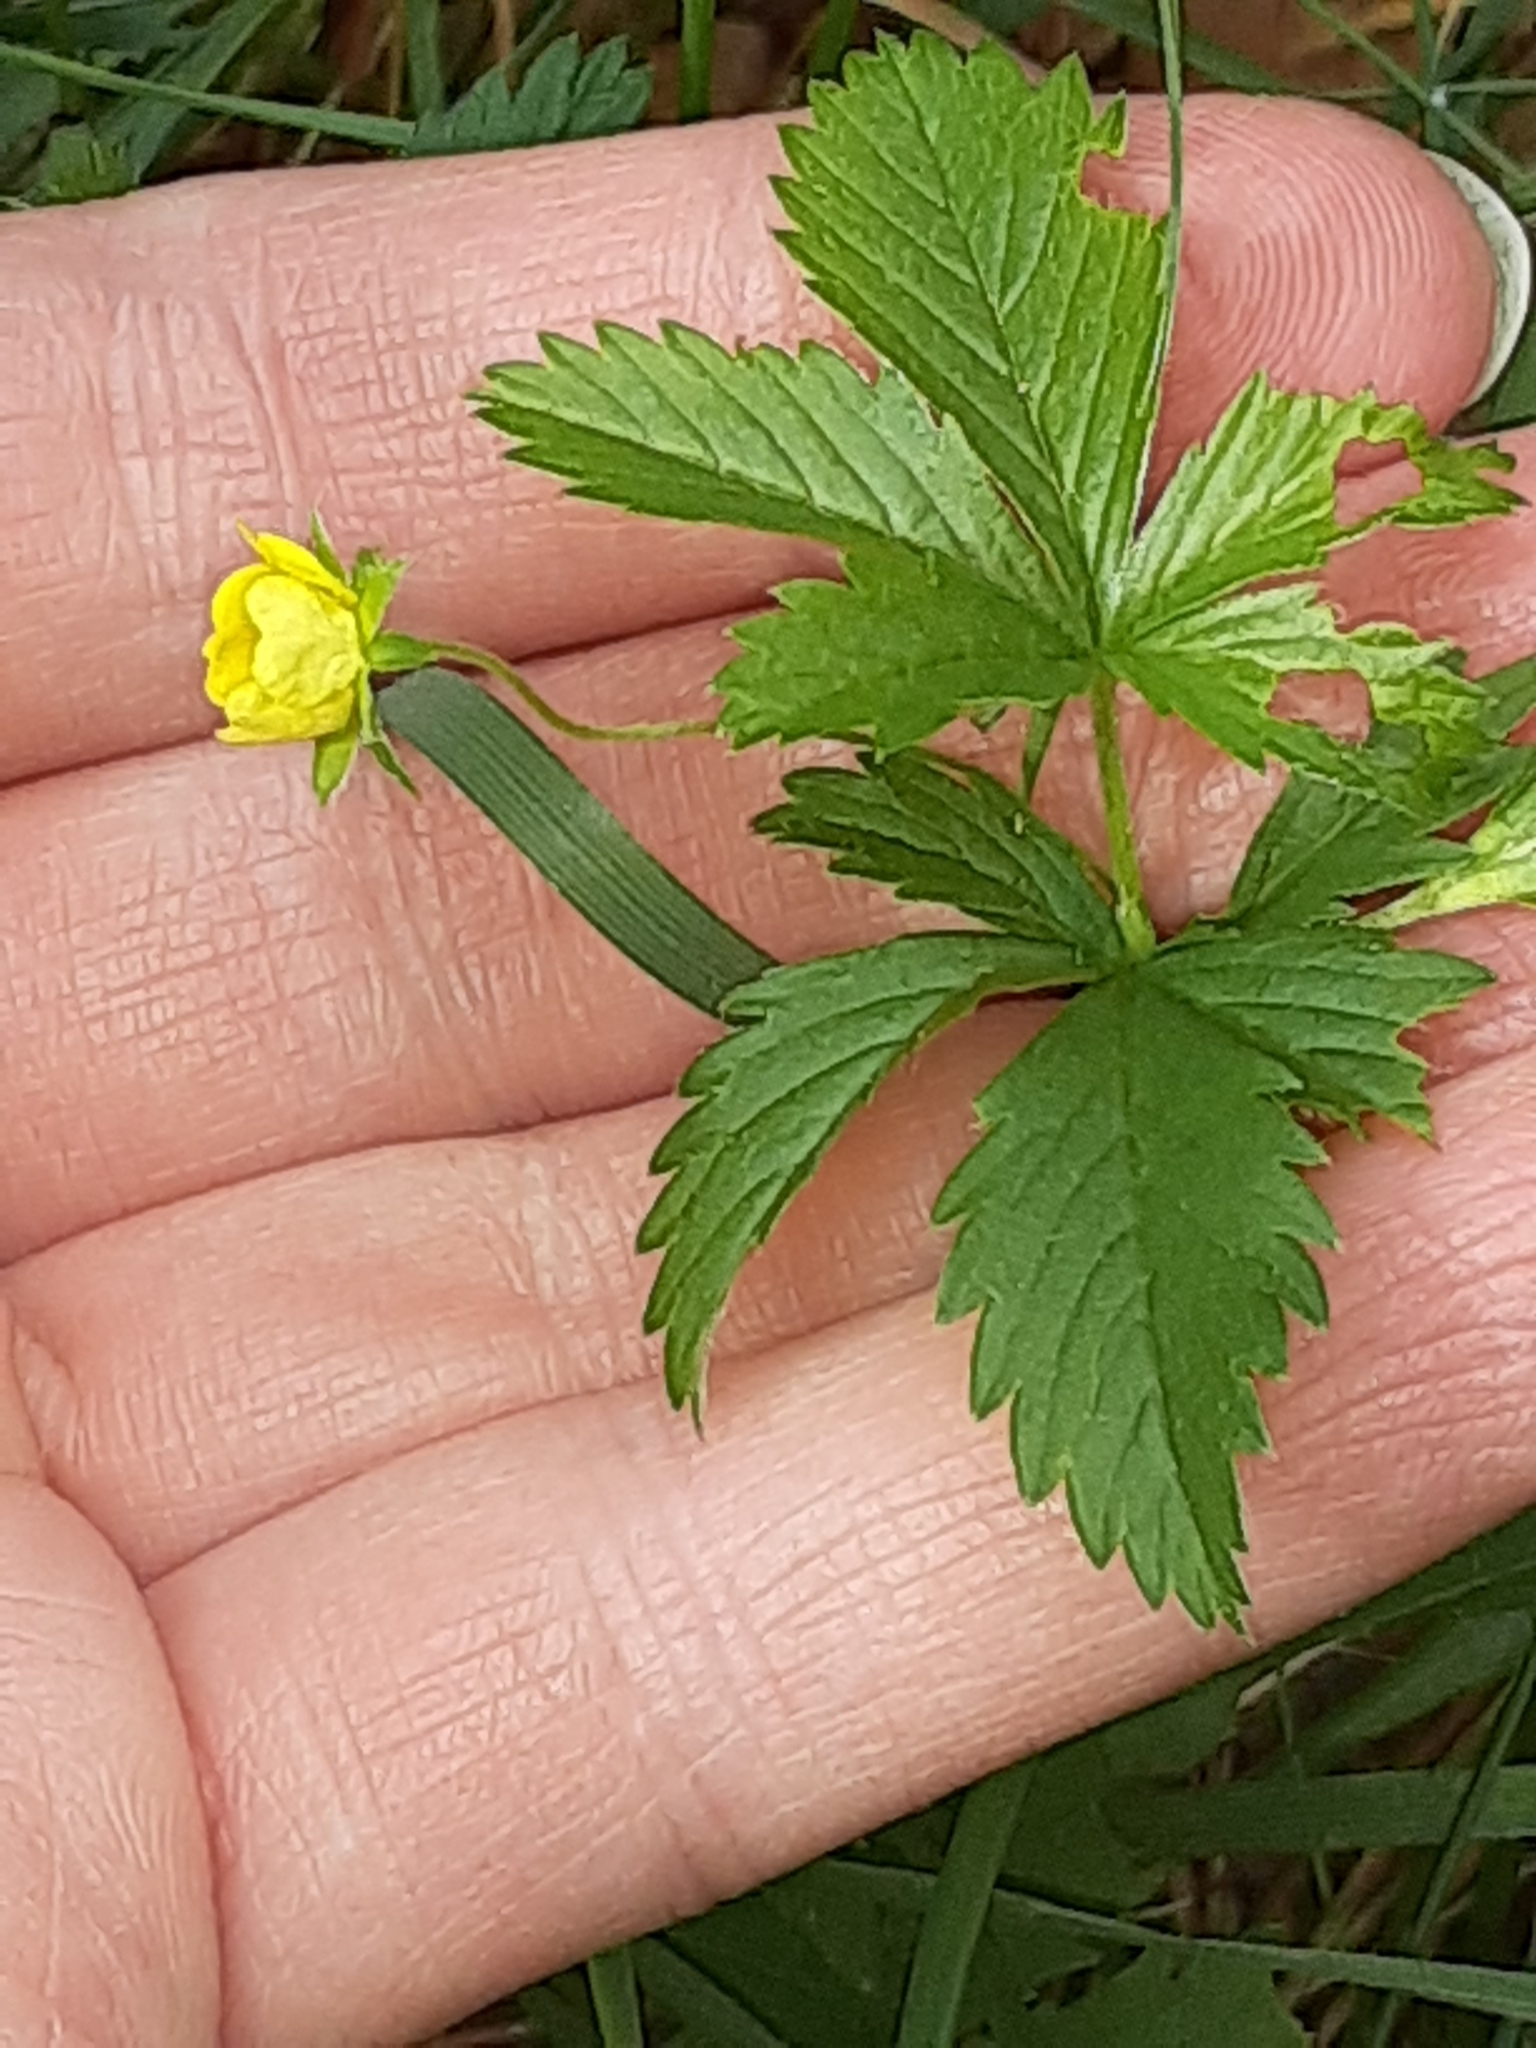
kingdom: Plantae
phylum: Tracheophyta
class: Magnoliopsida
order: Rosales
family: Rosaceae
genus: Potentilla
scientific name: Potentilla simplex
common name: Old field cinquefoil
